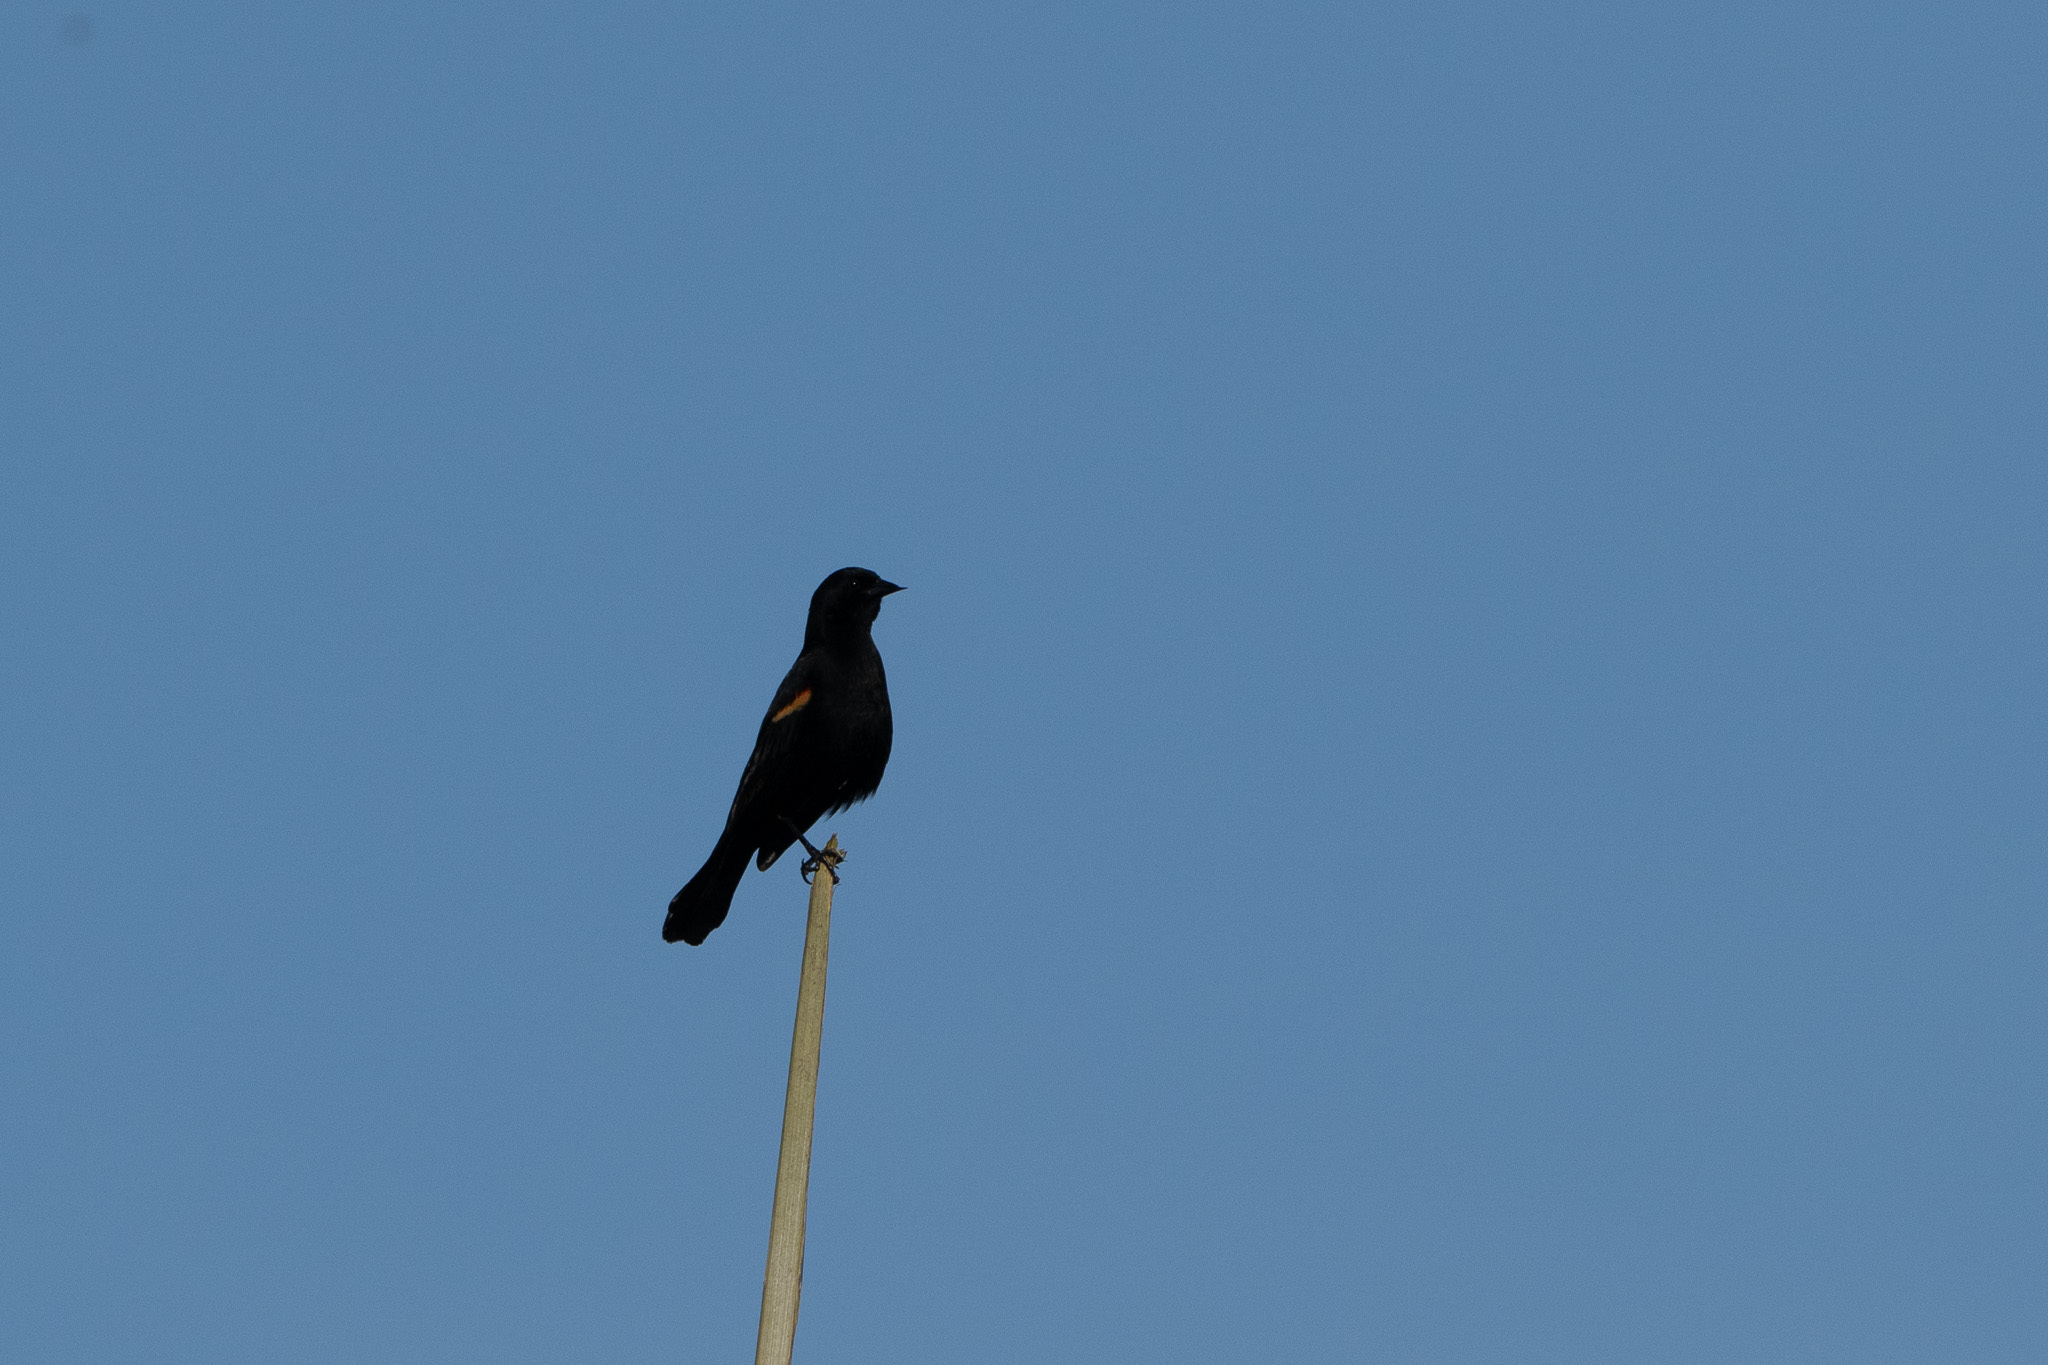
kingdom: Animalia
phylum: Chordata
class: Aves
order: Passeriformes
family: Icteridae
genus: Agelaius
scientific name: Agelaius phoeniceus
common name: Red-winged blackbird
